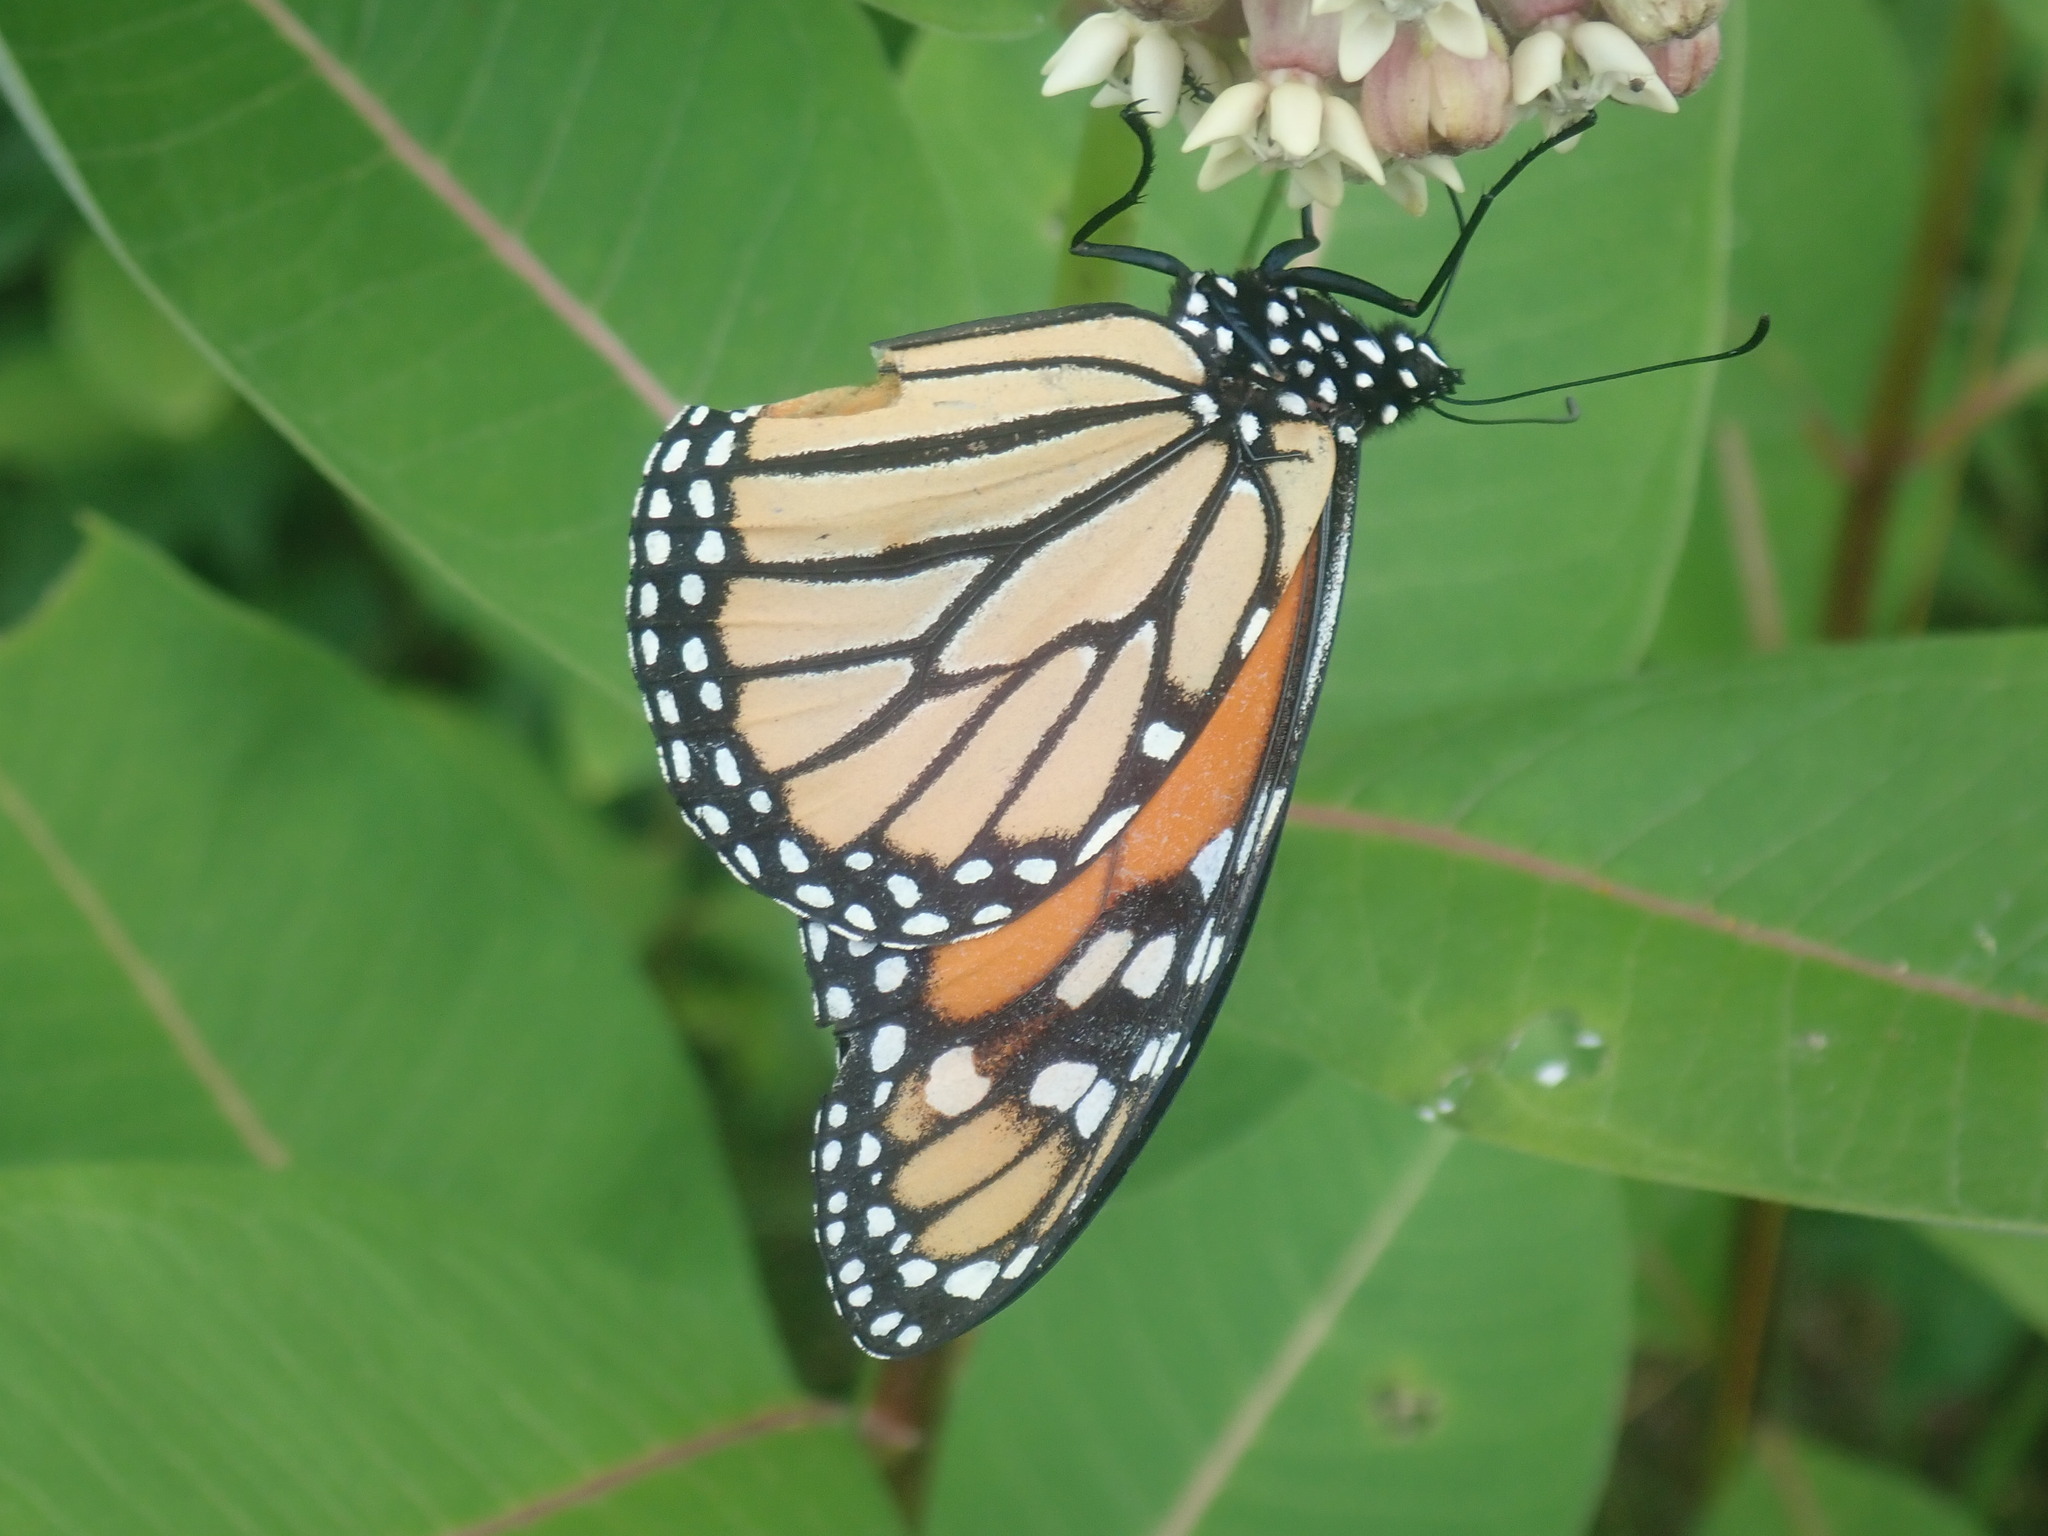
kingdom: Animalia
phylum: Arthropoda
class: Insecta
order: Lepidoptera
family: Nymphalidae
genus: Danaus
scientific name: Danaus plexippus
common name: Monarch
